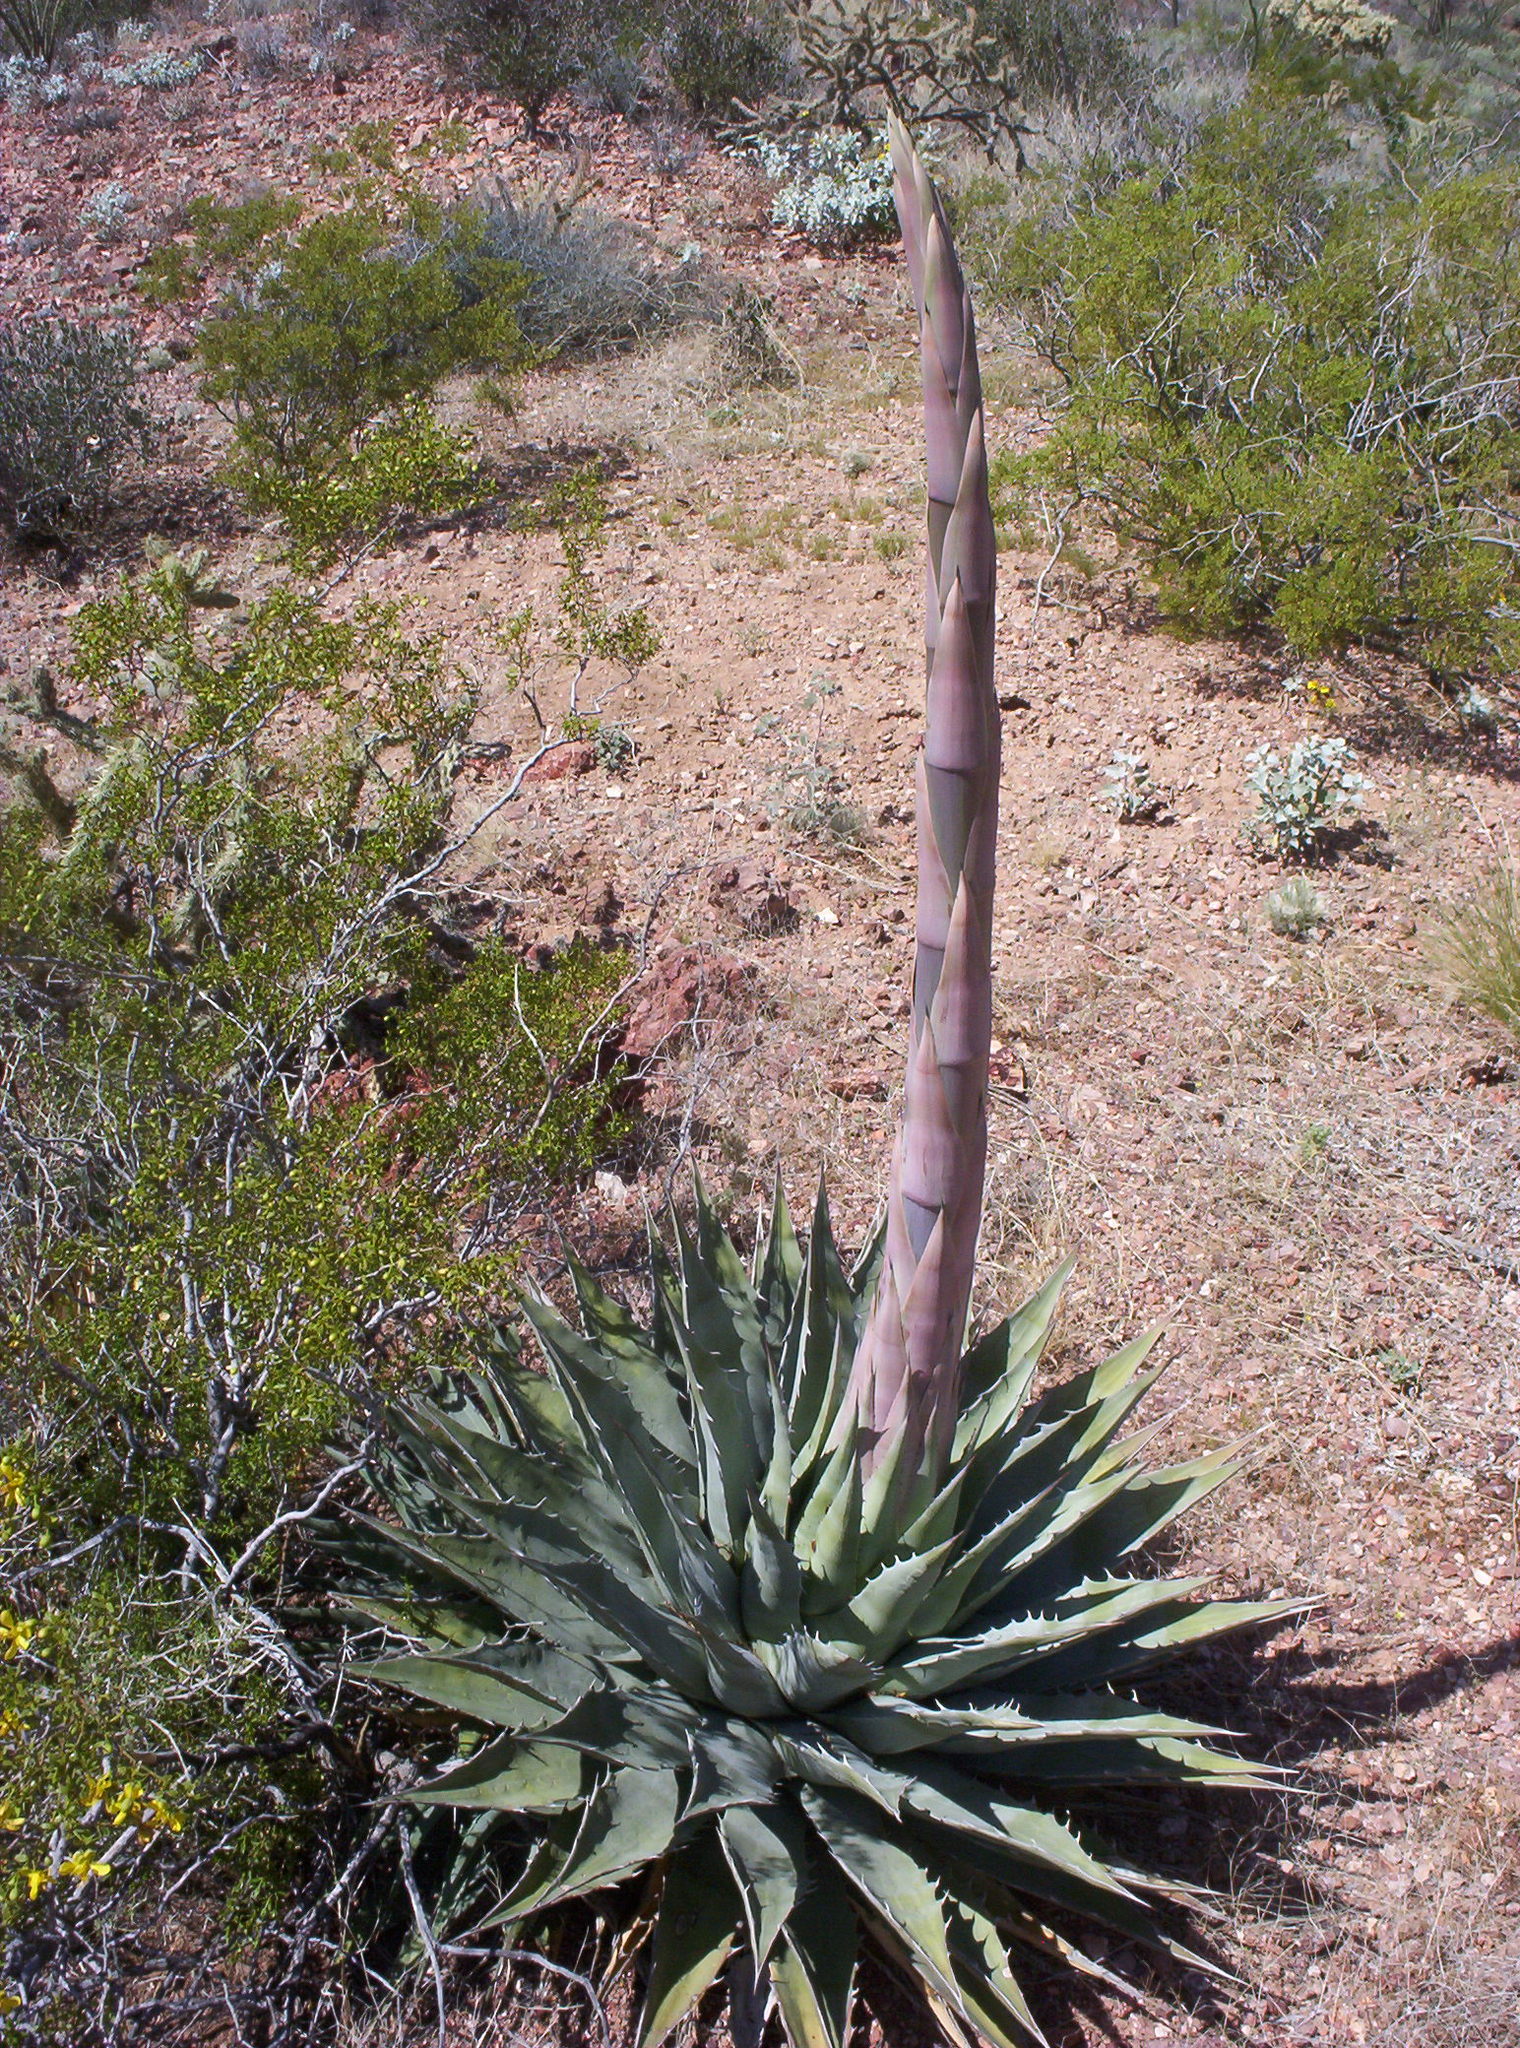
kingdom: Plantae
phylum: Tracheophyta
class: Liliopsida
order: Asparagales
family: Asparagaceae
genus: Agave
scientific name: Agave simplex
